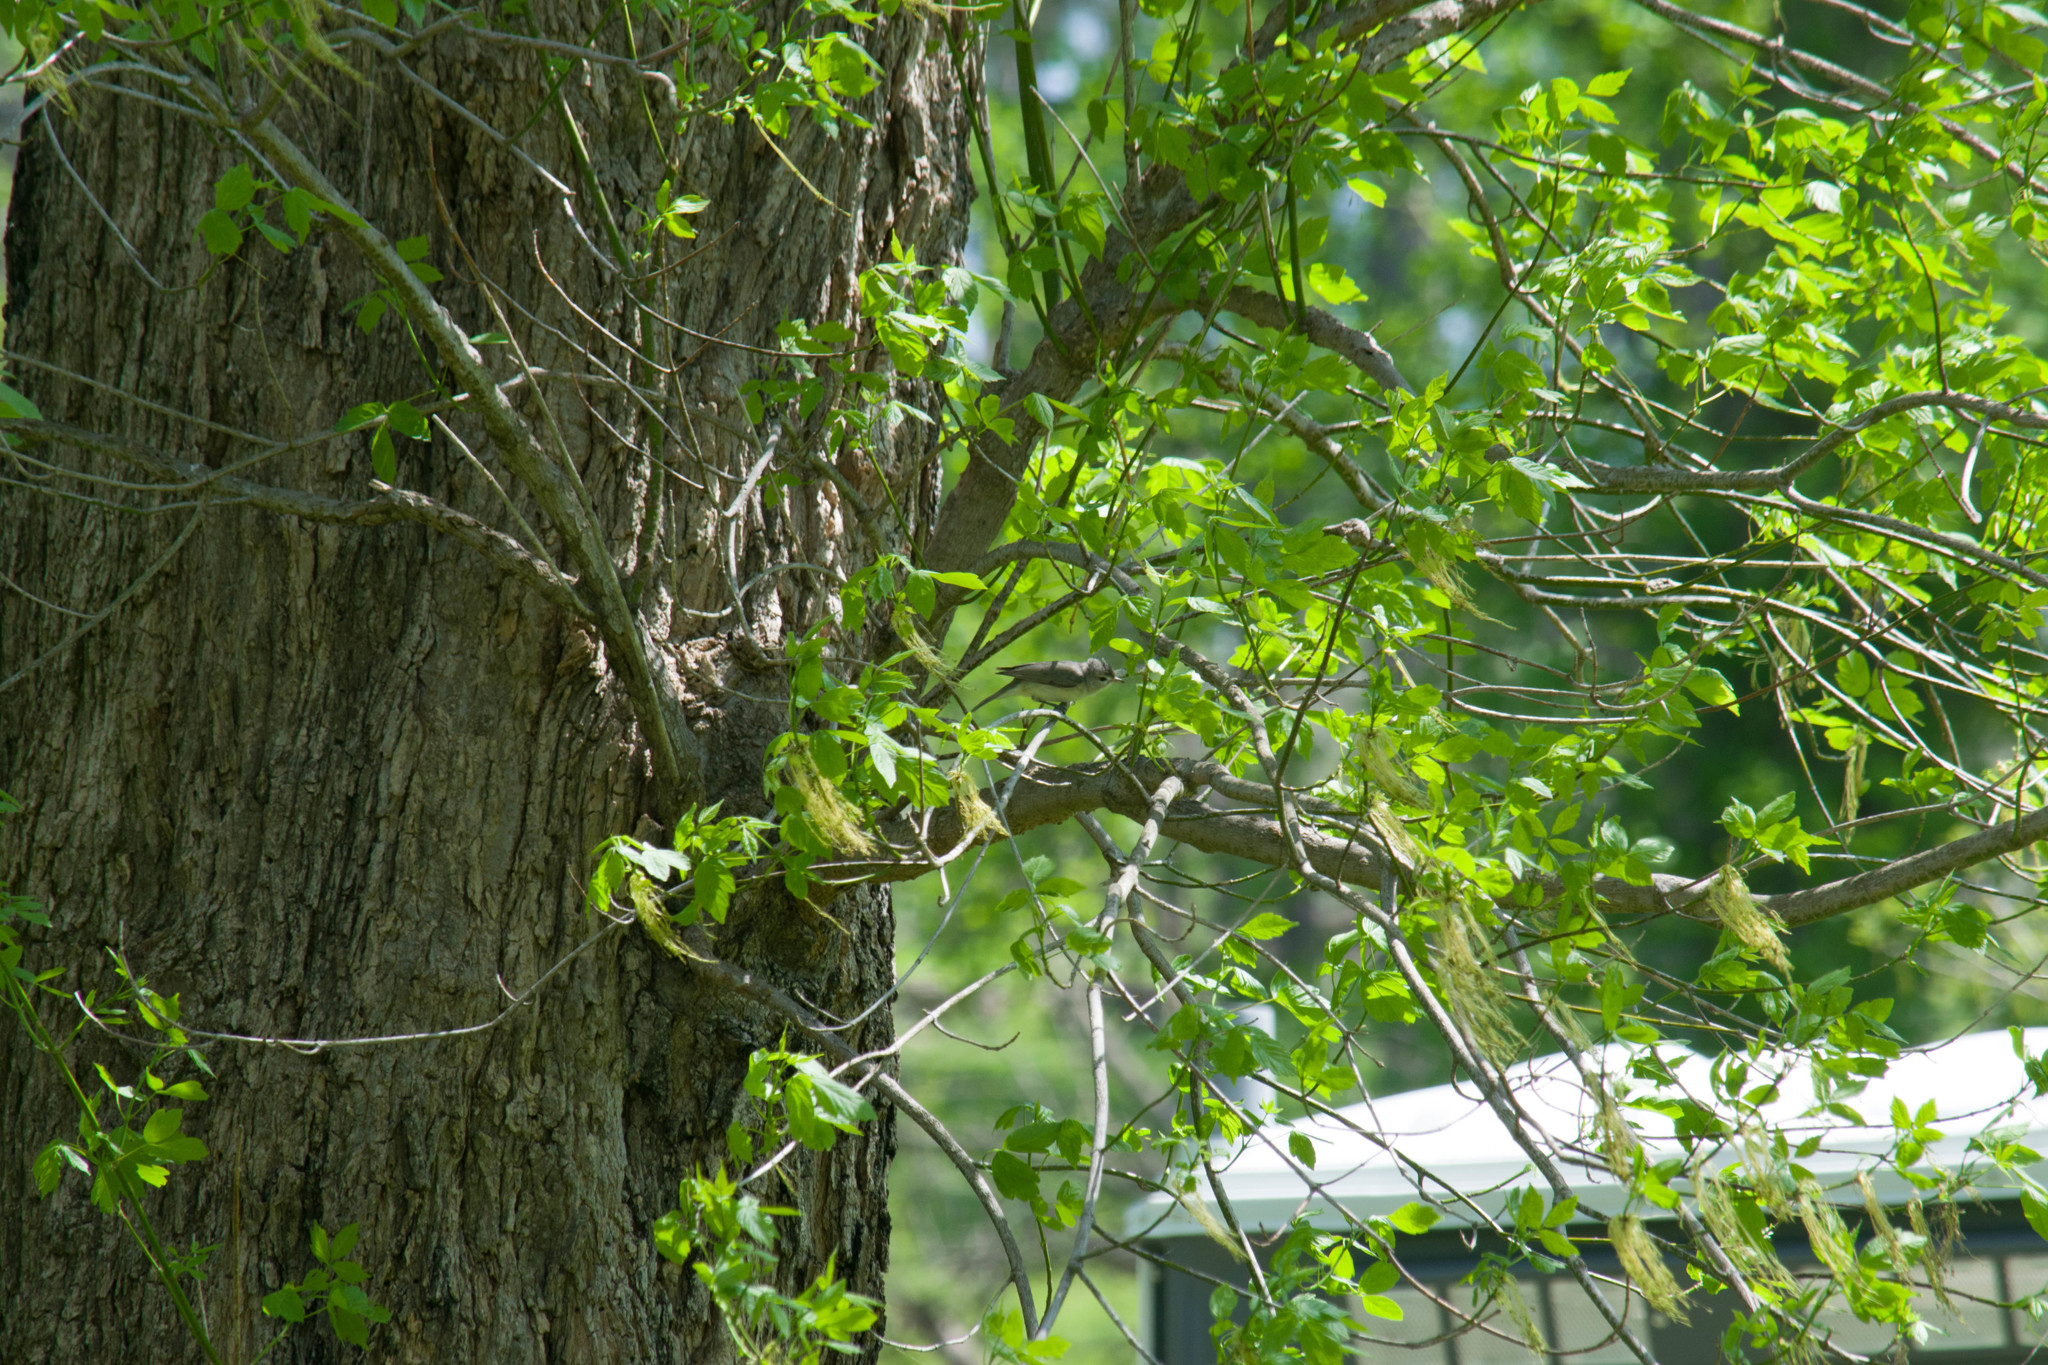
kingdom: Animalia
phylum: Chordata
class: Aves
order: Passeriformes
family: Vireonidae
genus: Vireo
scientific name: Vireo gilvus
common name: Warbling vireo
